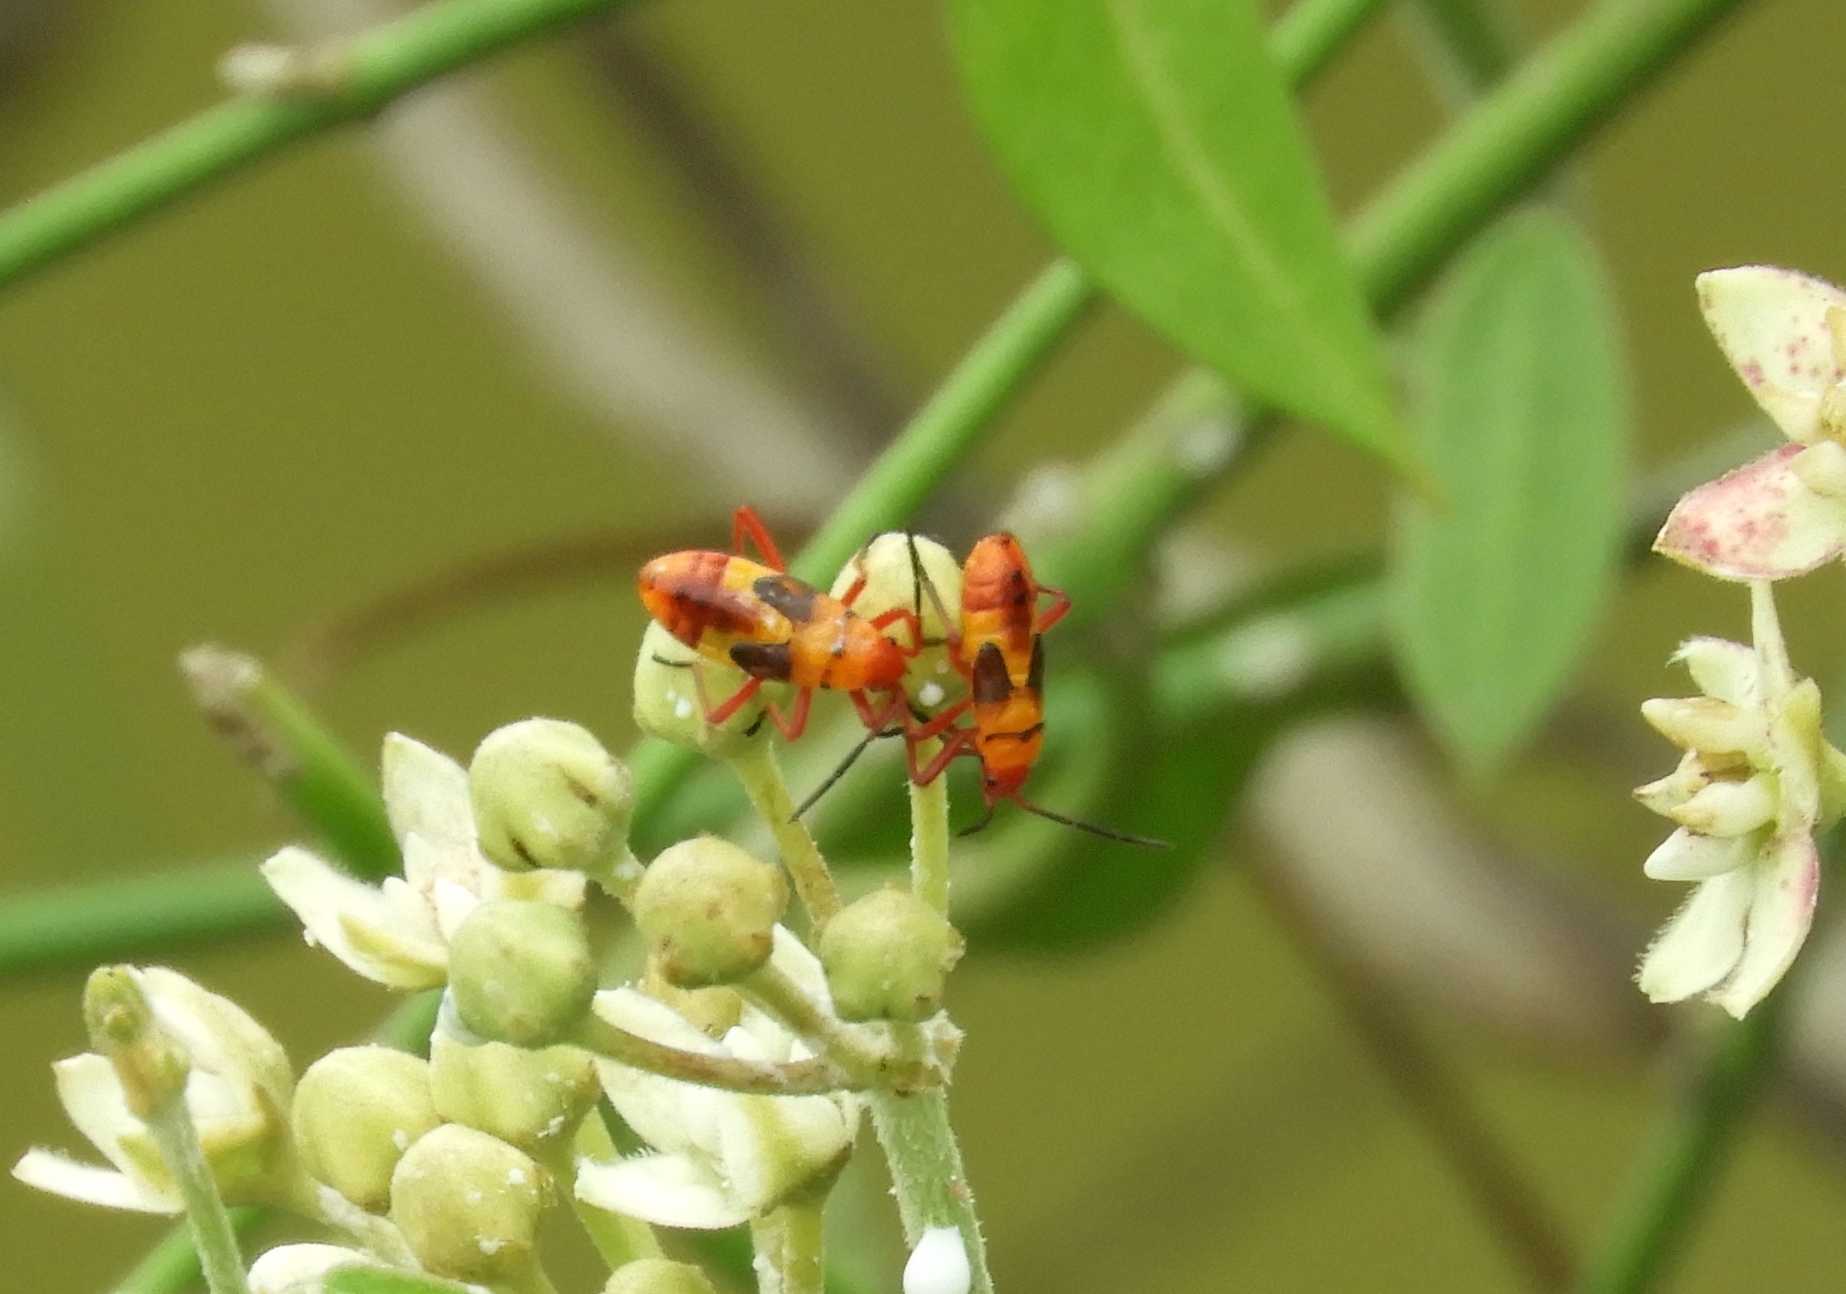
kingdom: Animalia
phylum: Arthropoda
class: Insecta
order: Hemiptera
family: Lygaeidae
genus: Oncopeltus
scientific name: Oncopeltus guttaloides
